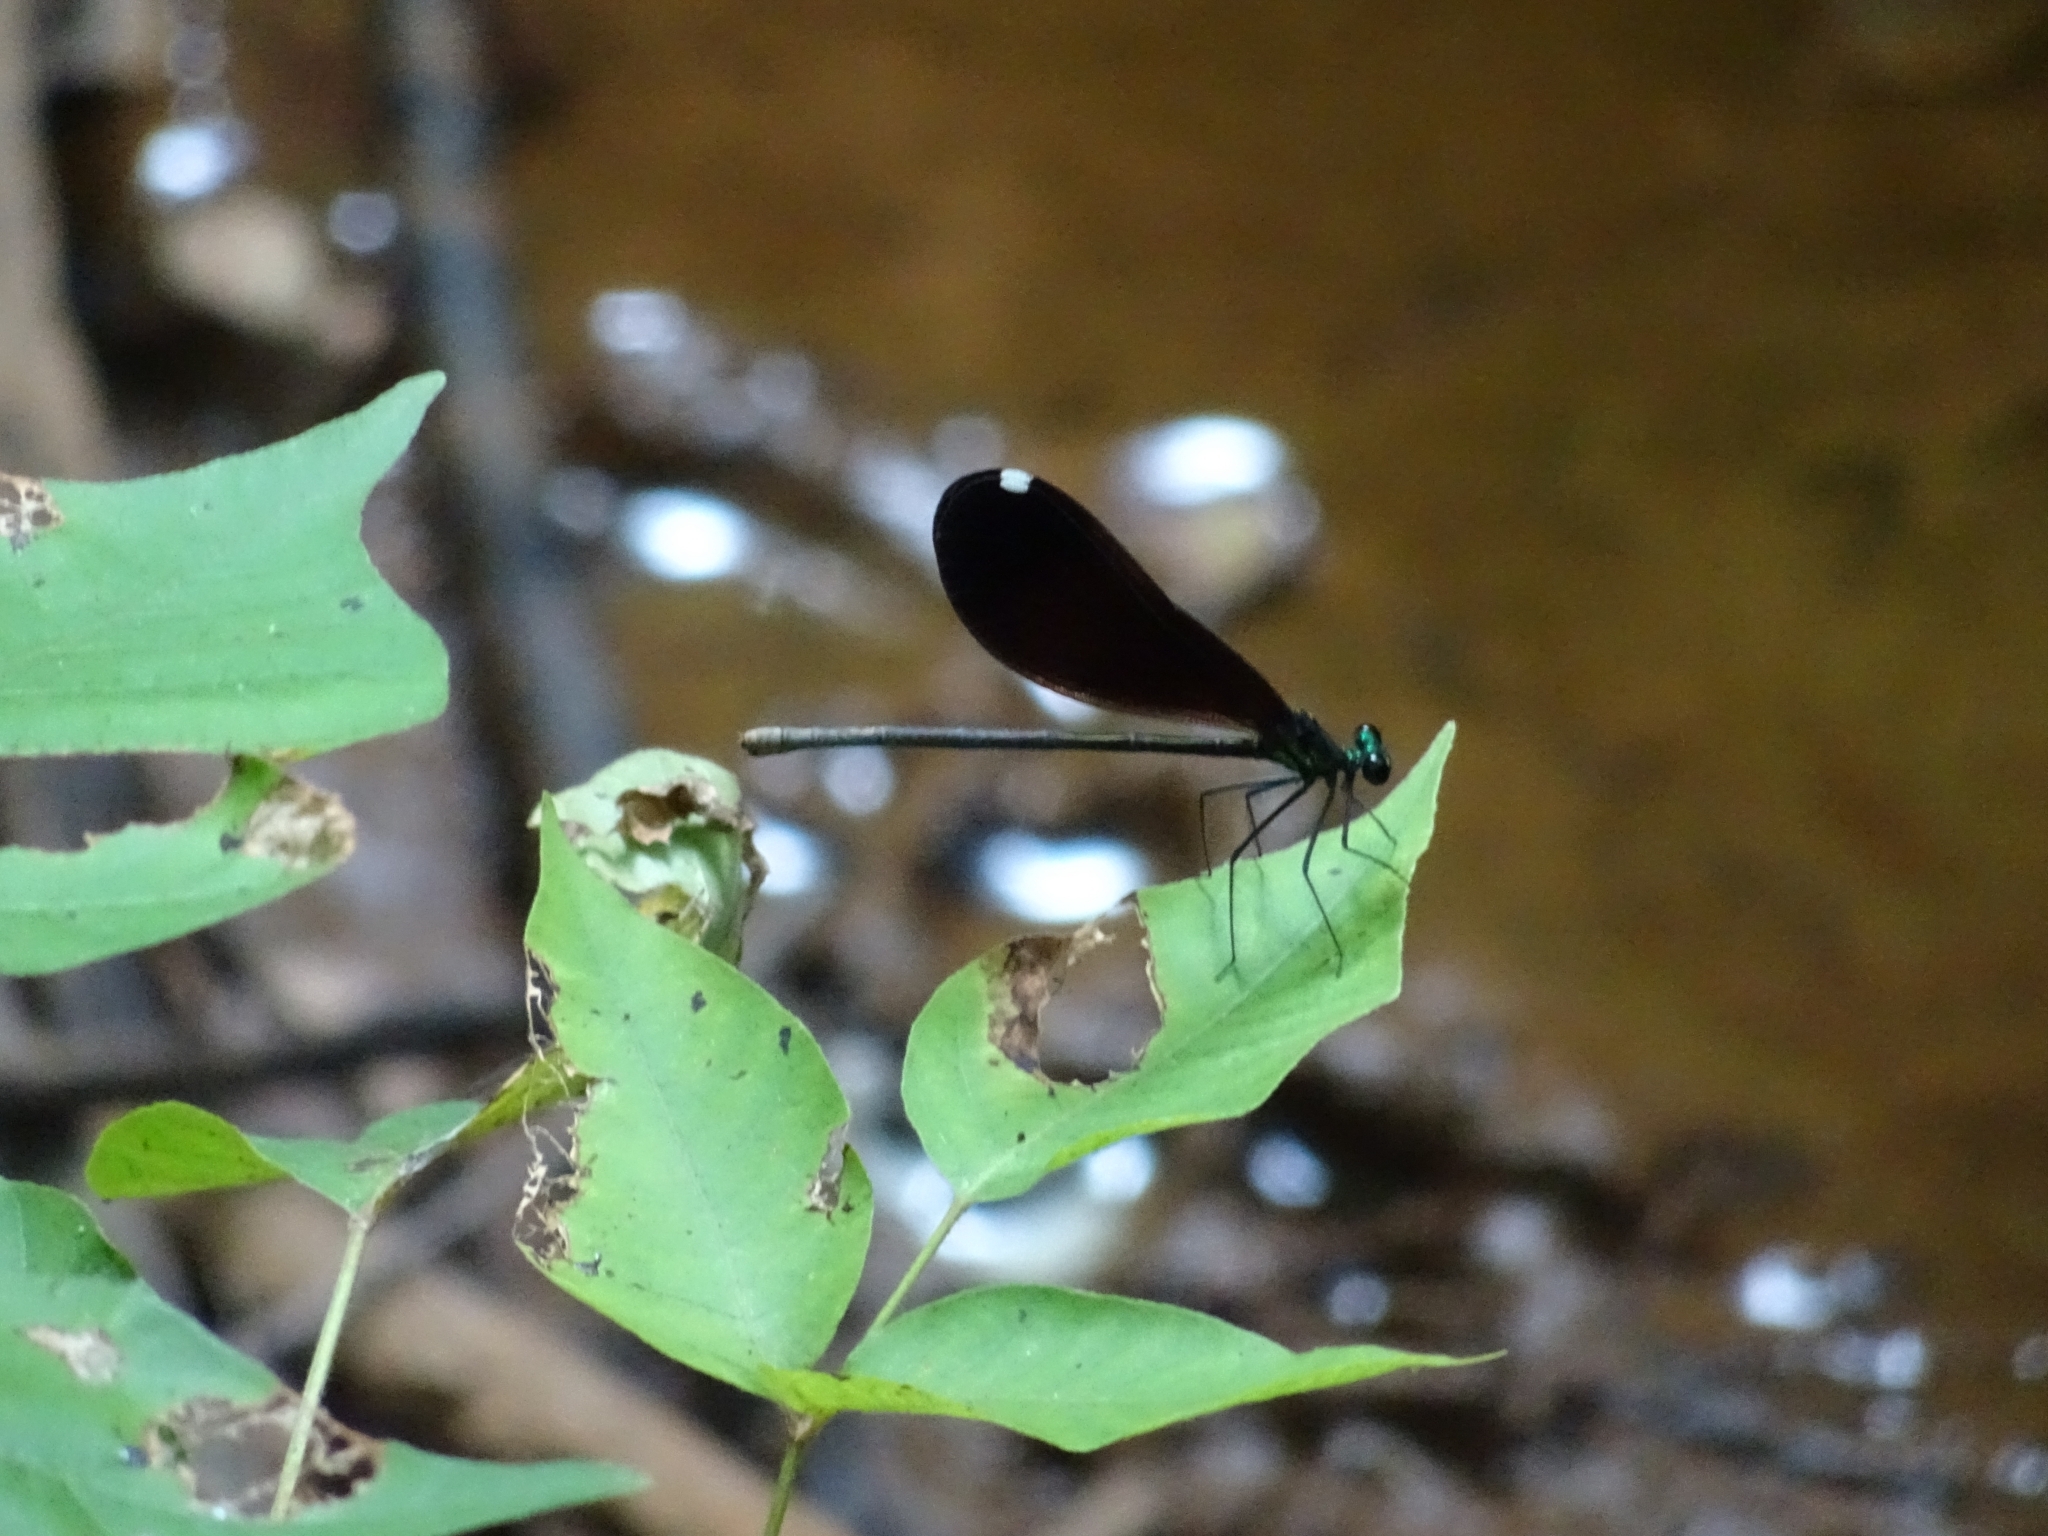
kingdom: Animalia
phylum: Arthropoda
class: Insecta
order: Odonata
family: Calopterygidae
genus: Calopteryx
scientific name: Calopteryx maculata
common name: Ebony jewelwing
